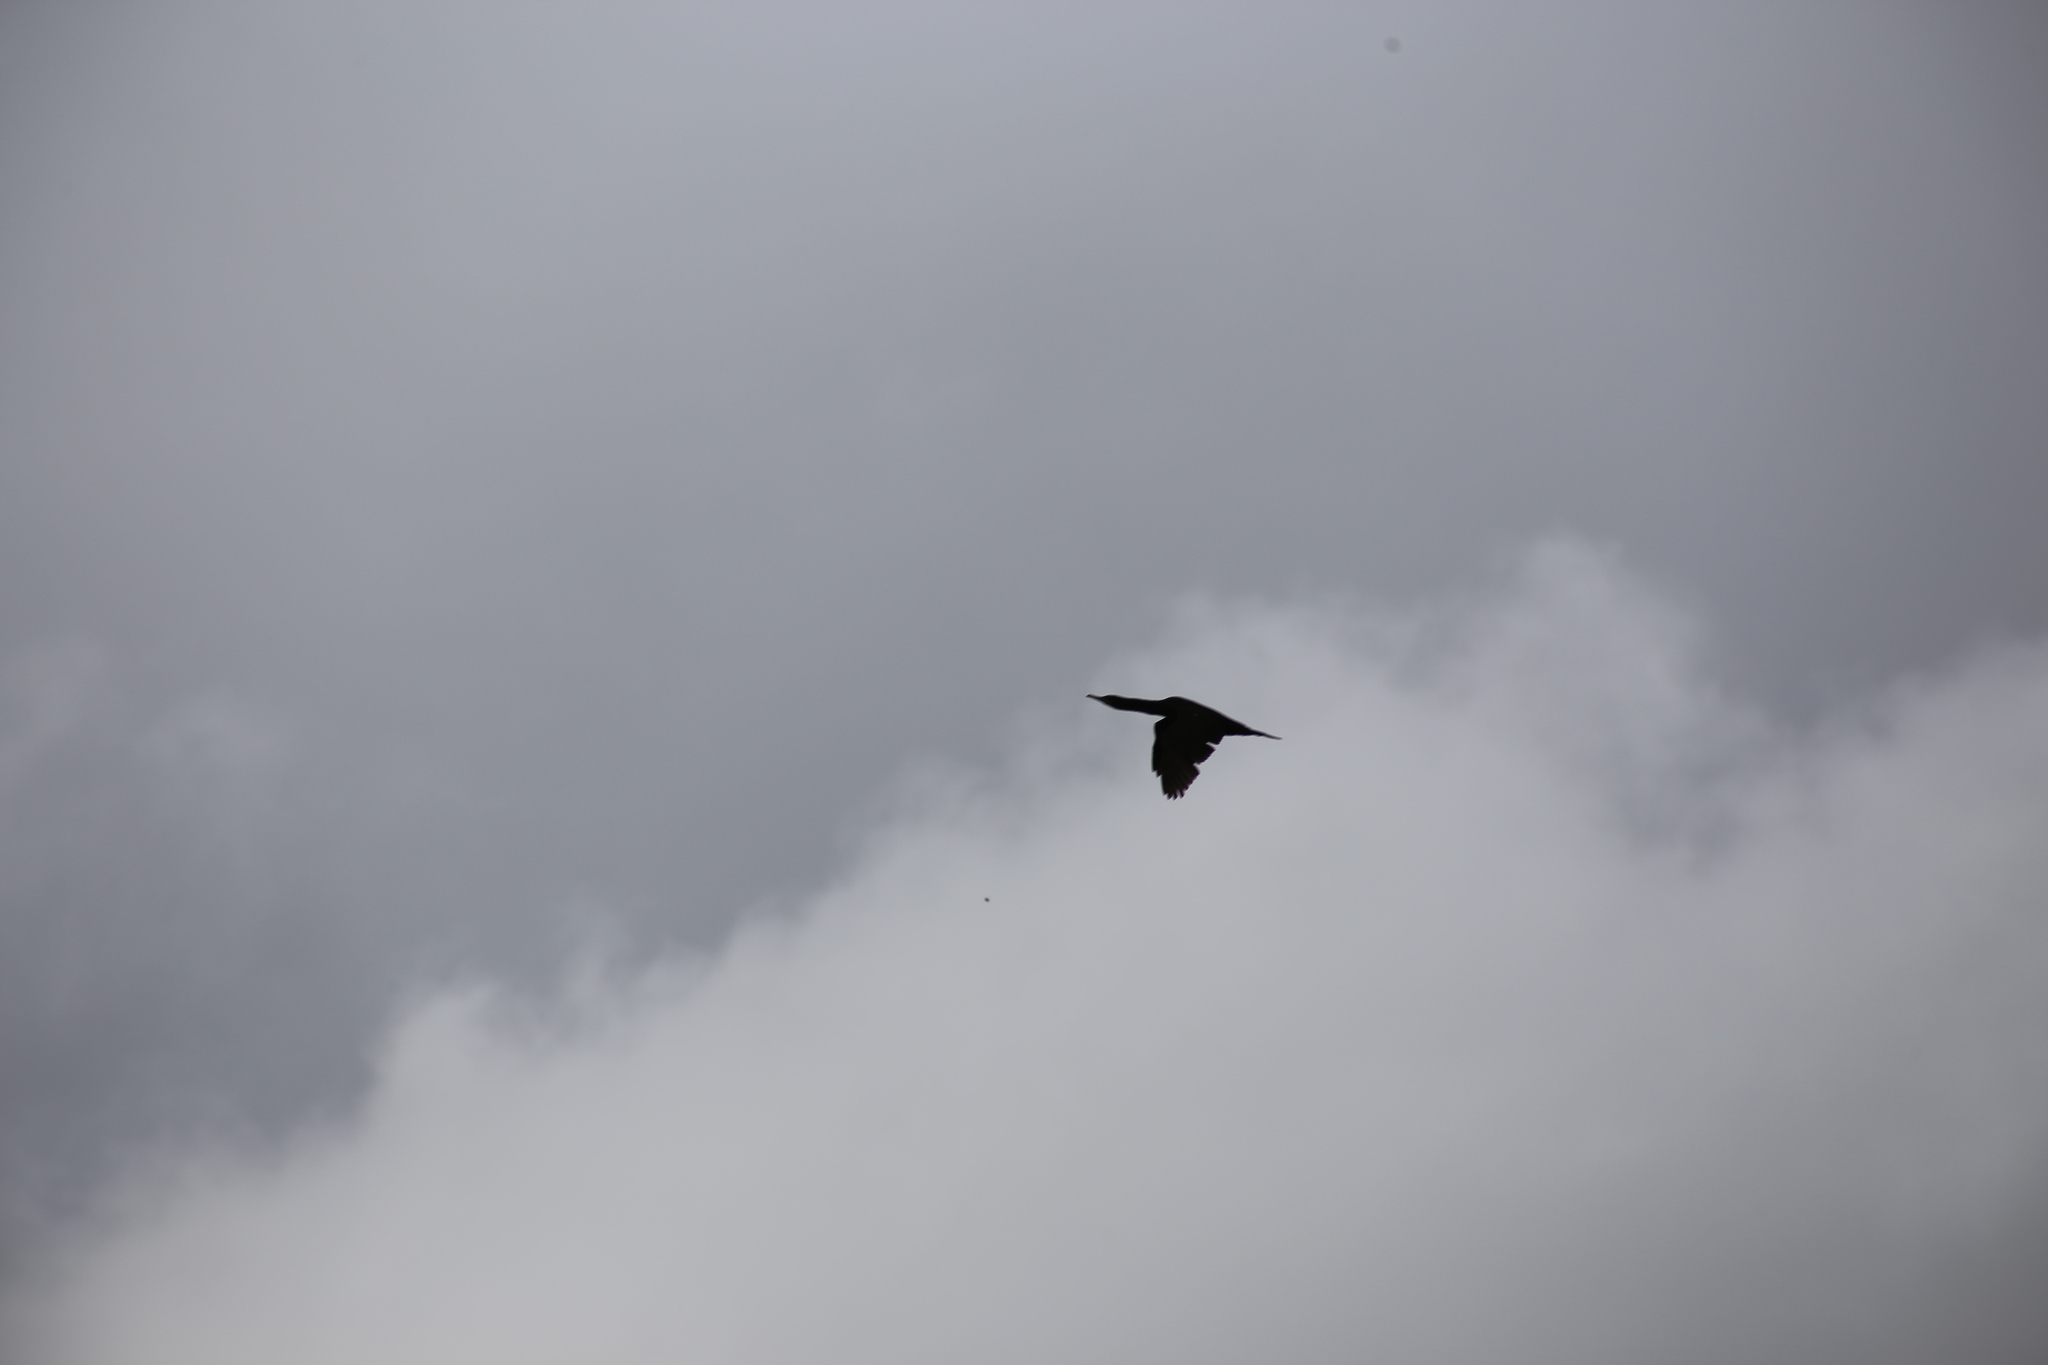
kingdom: Animalia
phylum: Chordata
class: Aves
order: Suliformes
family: Phalacrocoracidae
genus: Phalacrocorax
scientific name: Phalacrocorax sulcirostris
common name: Little black cormorant
